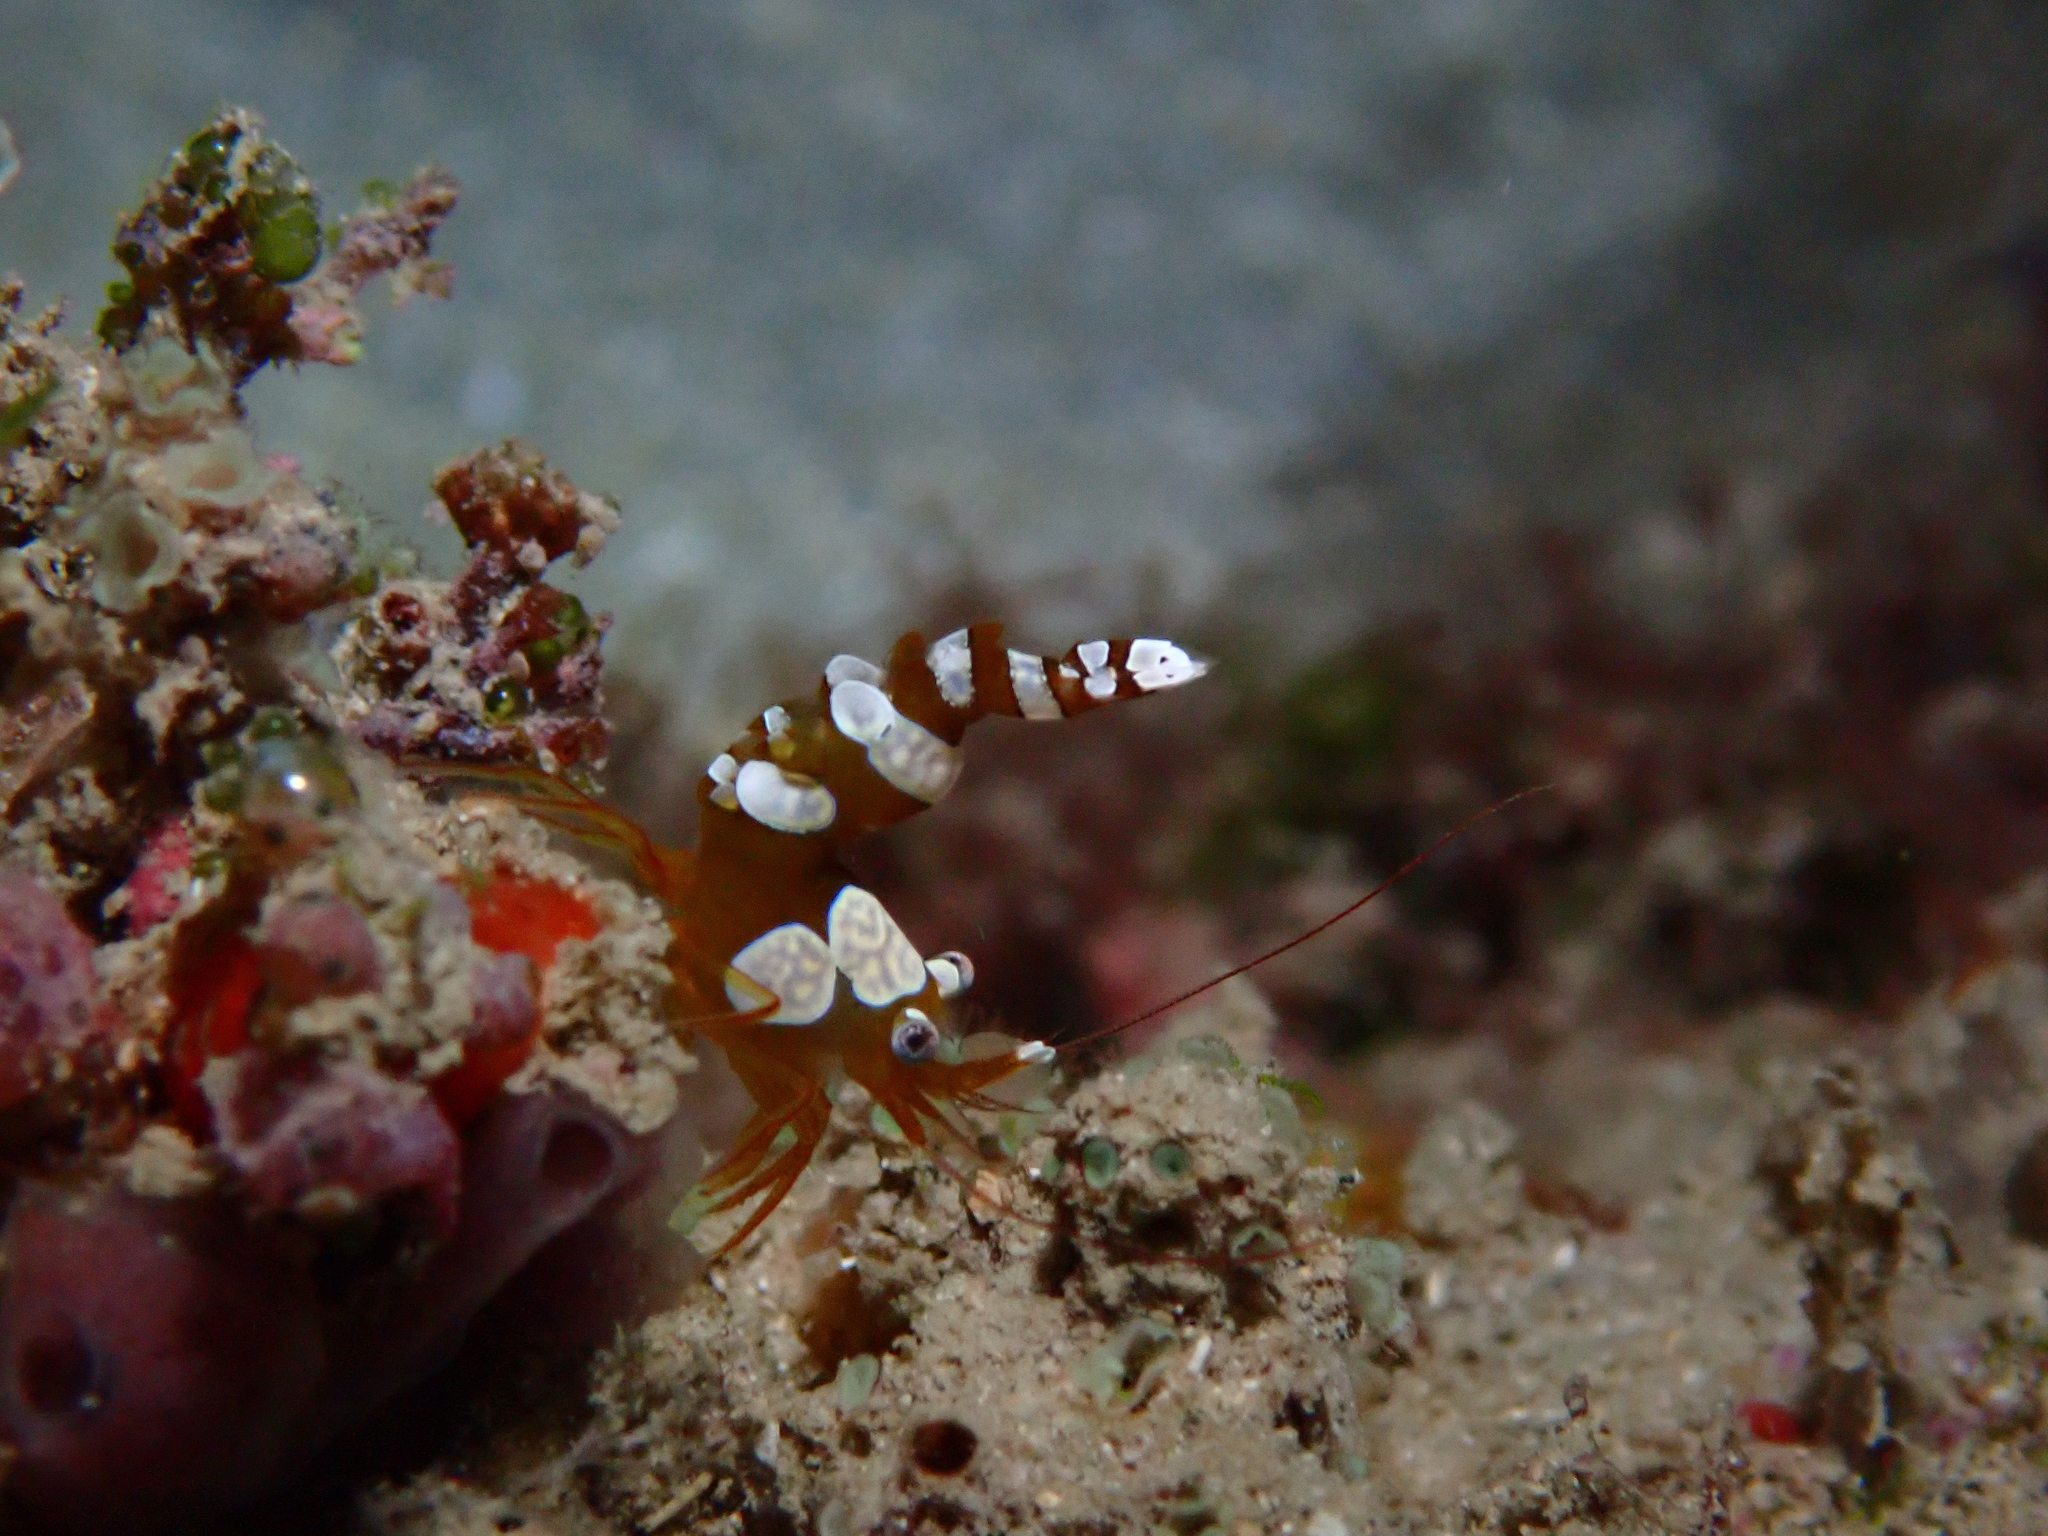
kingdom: Animalia
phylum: Arthropoda
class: Malacostraca
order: Decapoda
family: Thoridae
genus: Thor
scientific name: Thor amboinensis
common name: Squat anemone shrimp
